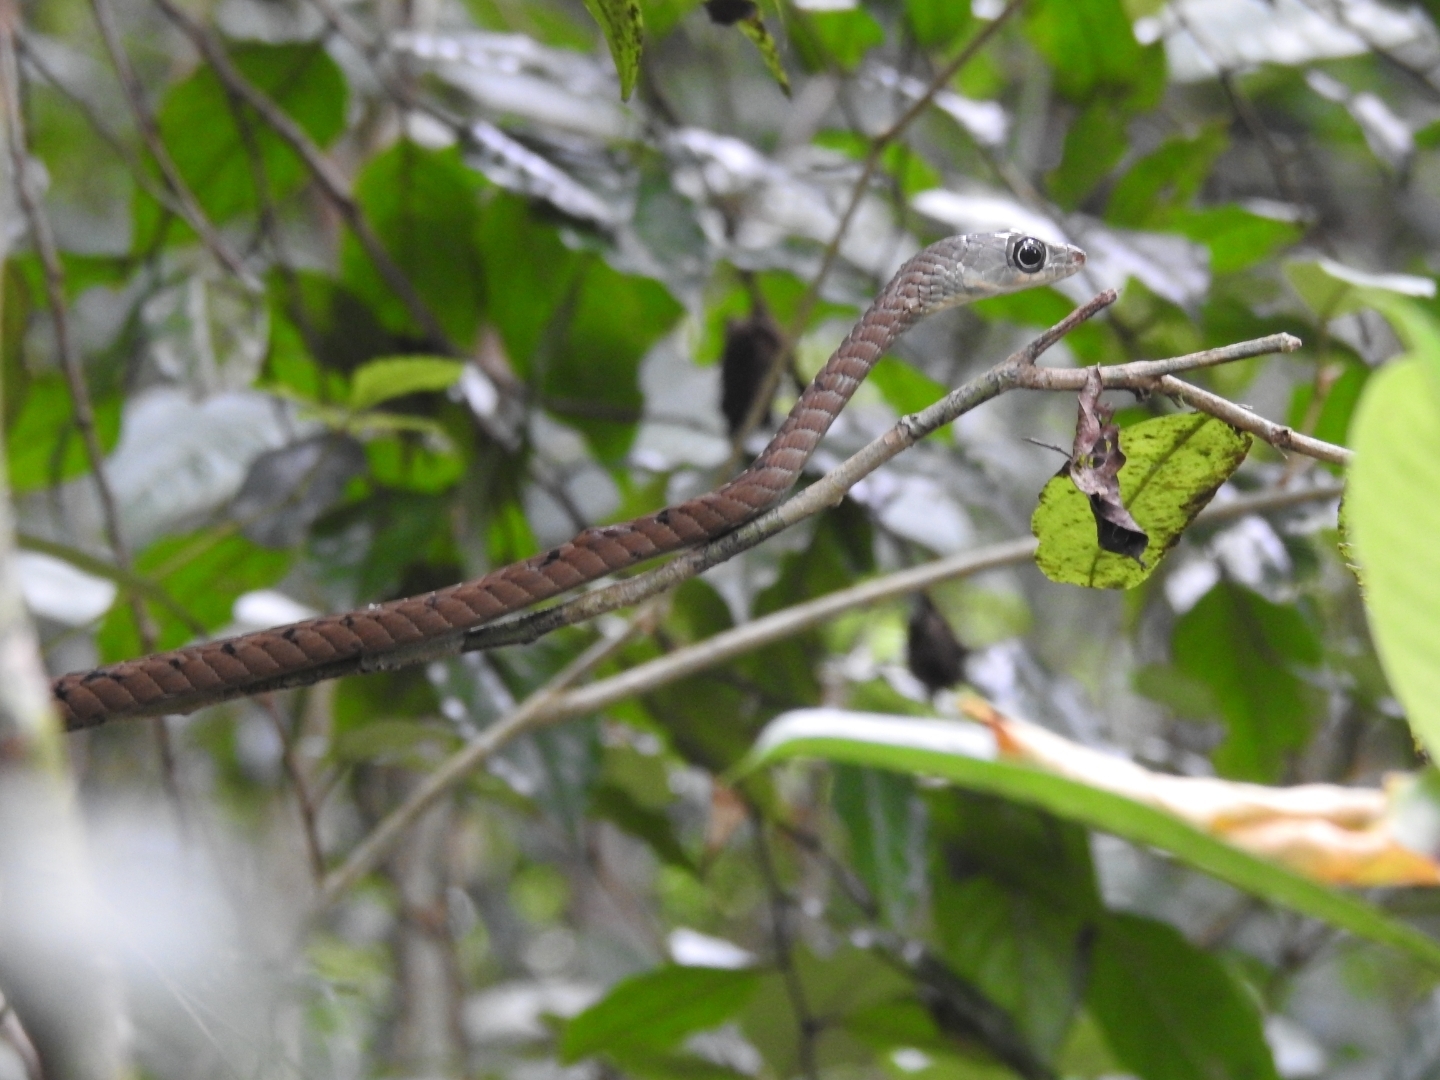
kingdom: Animalia
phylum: Chordata
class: Squamata
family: Colubridae
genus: Dendrelaphis
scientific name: Dendrelaphis grandoculis
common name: Southern bronzeback
